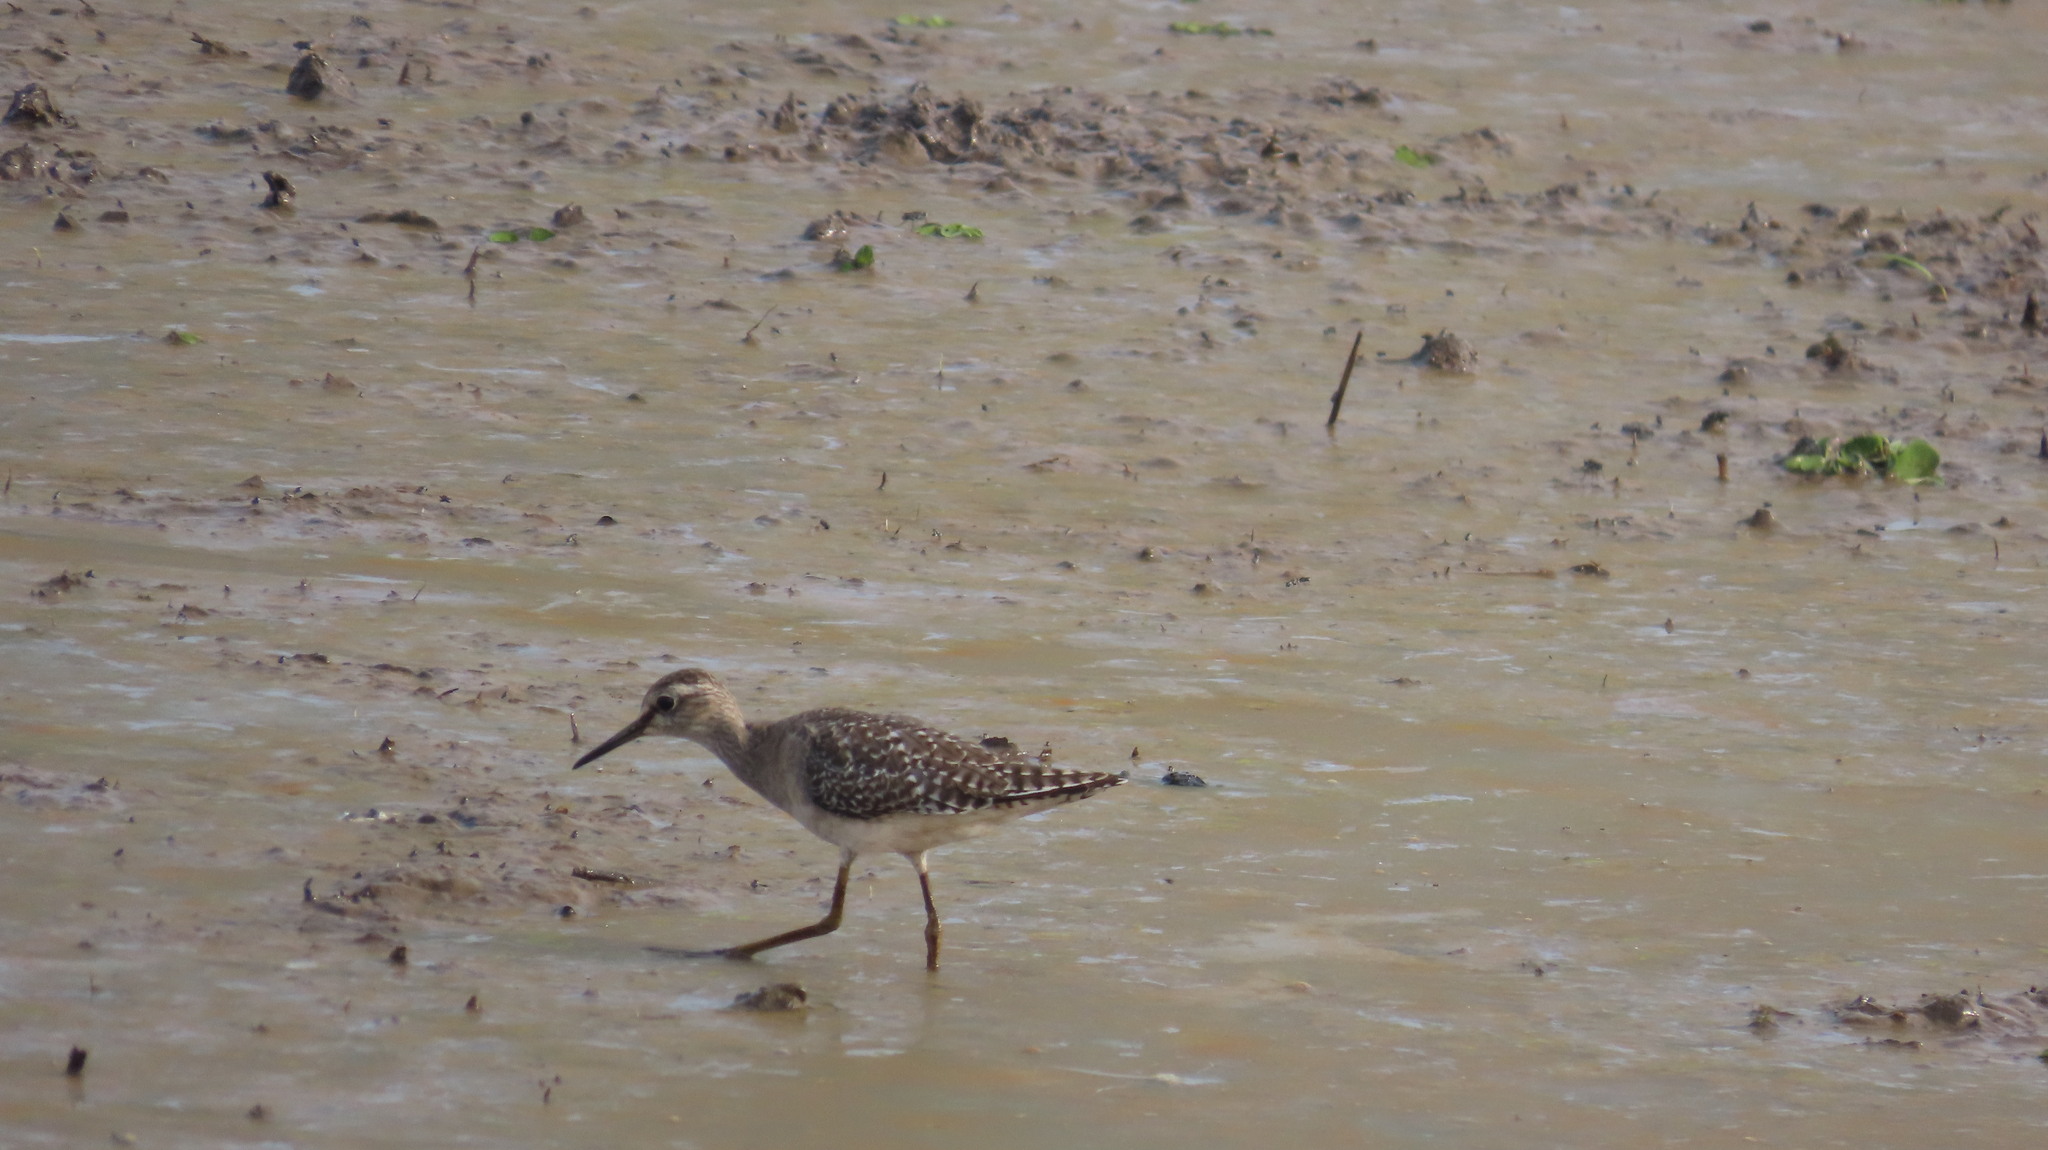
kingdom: Animalia
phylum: Chordata
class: Aves
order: Charadriiformes
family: Scolopacidae
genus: Tringa
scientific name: Tringa glareola
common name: Wood sandpiper
